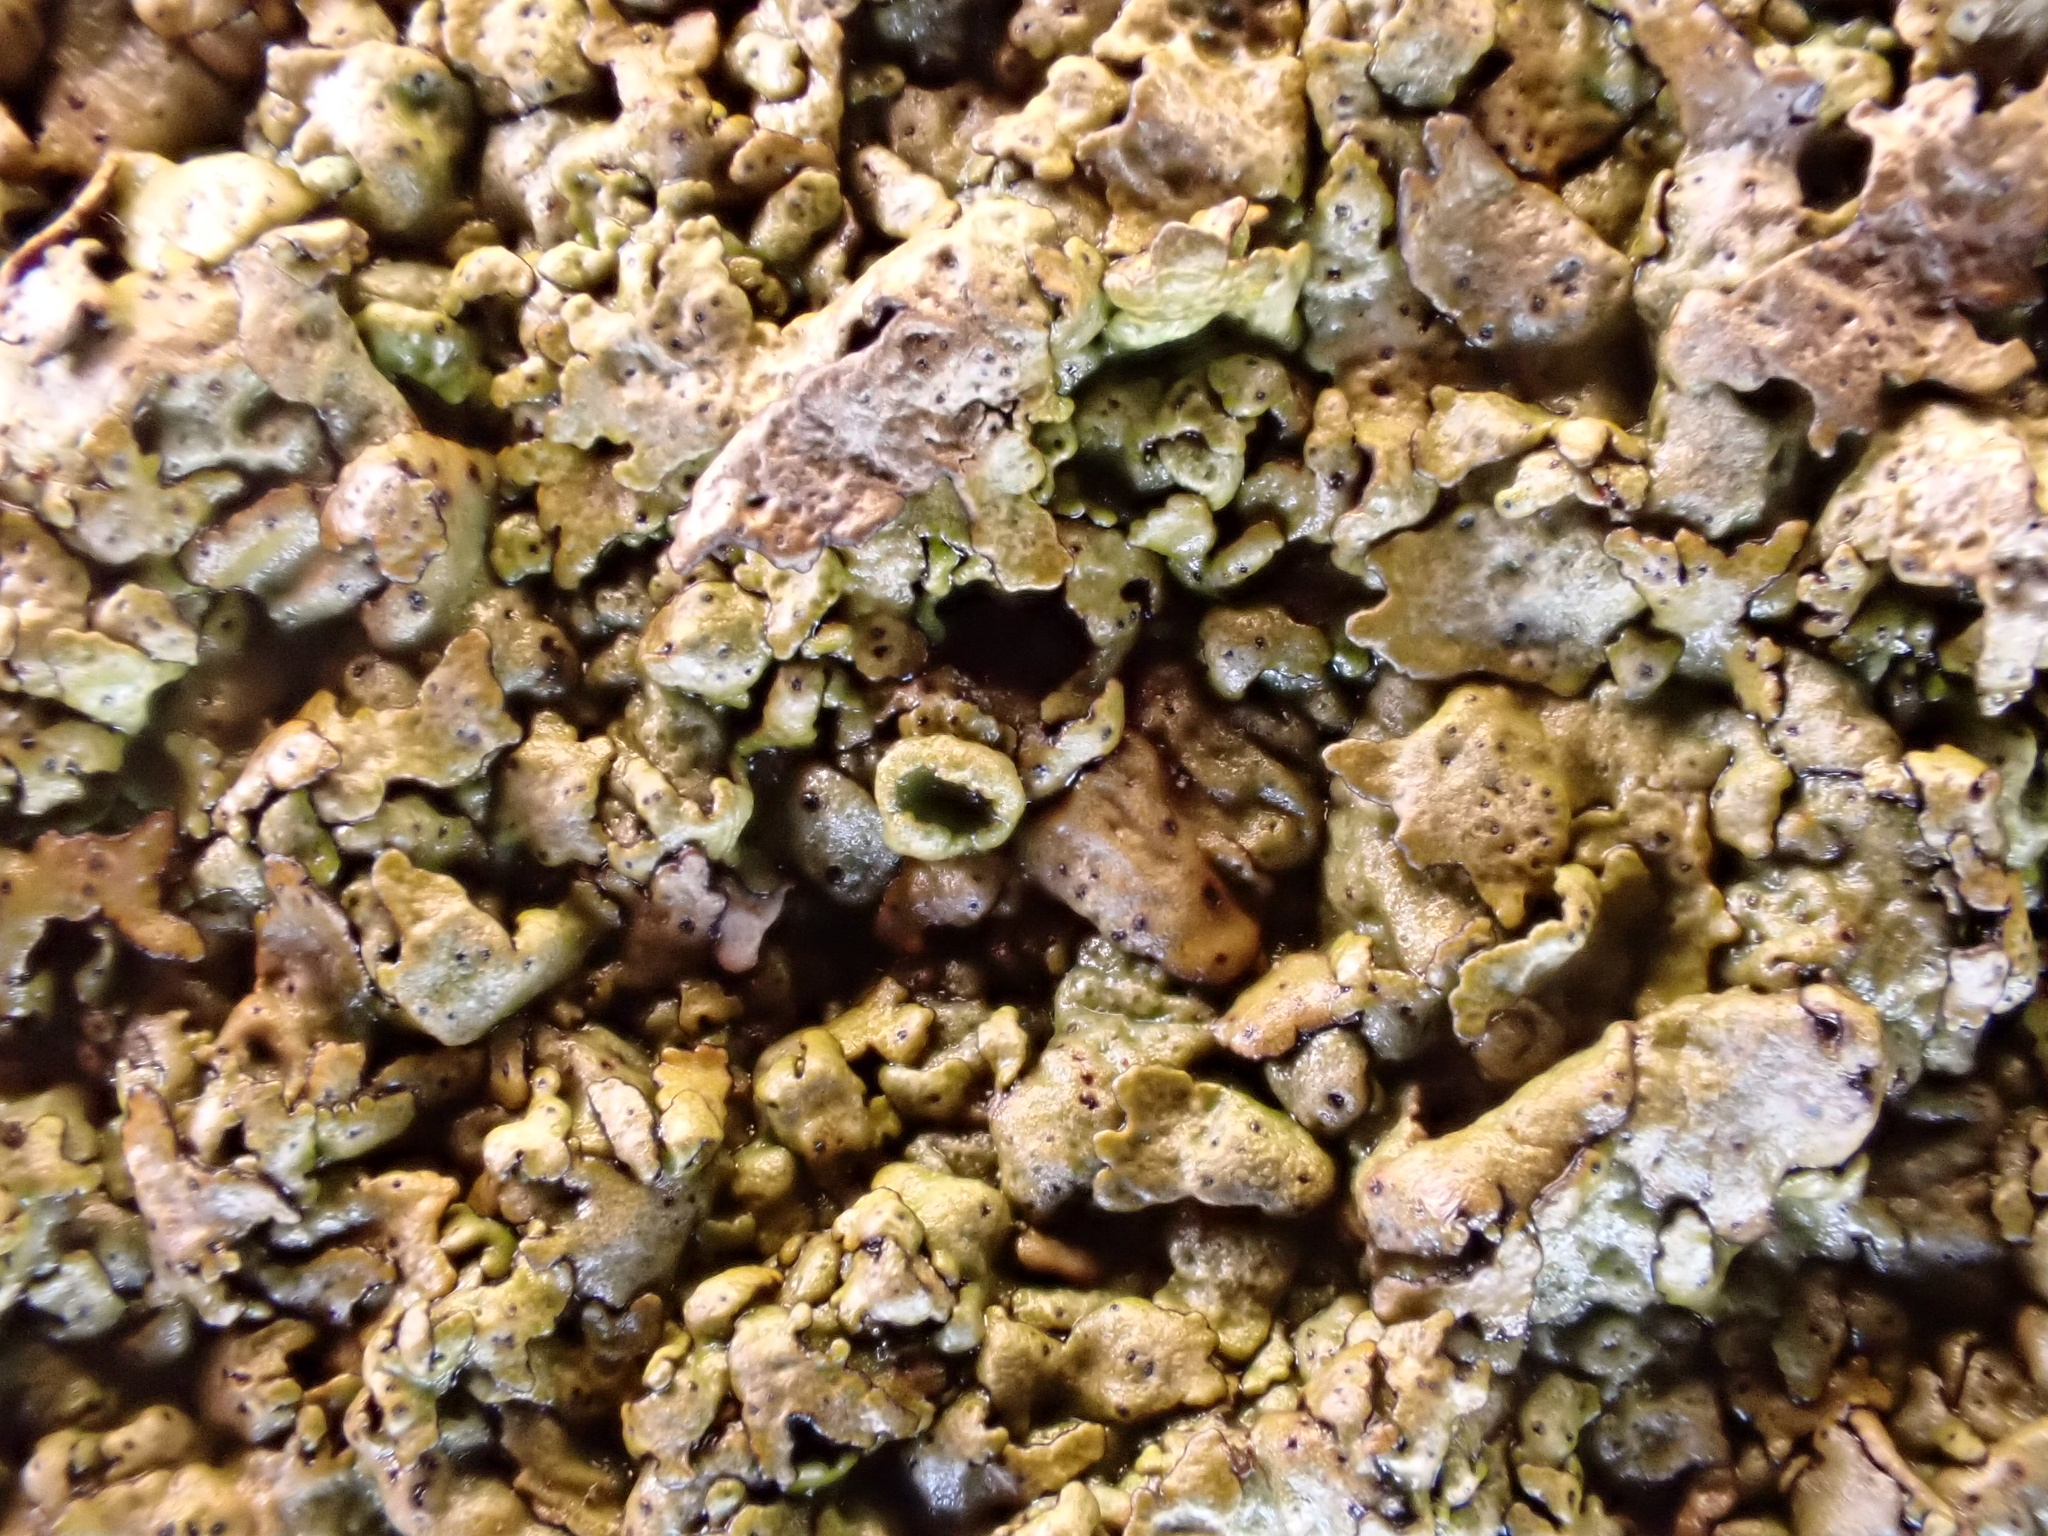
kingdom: Fungi
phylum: Ascomycota
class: Lecanoromycetes
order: Lecanorales
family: Parmeliaceae
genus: Xanthoparmelia
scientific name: Xanthoparmelia pulla
